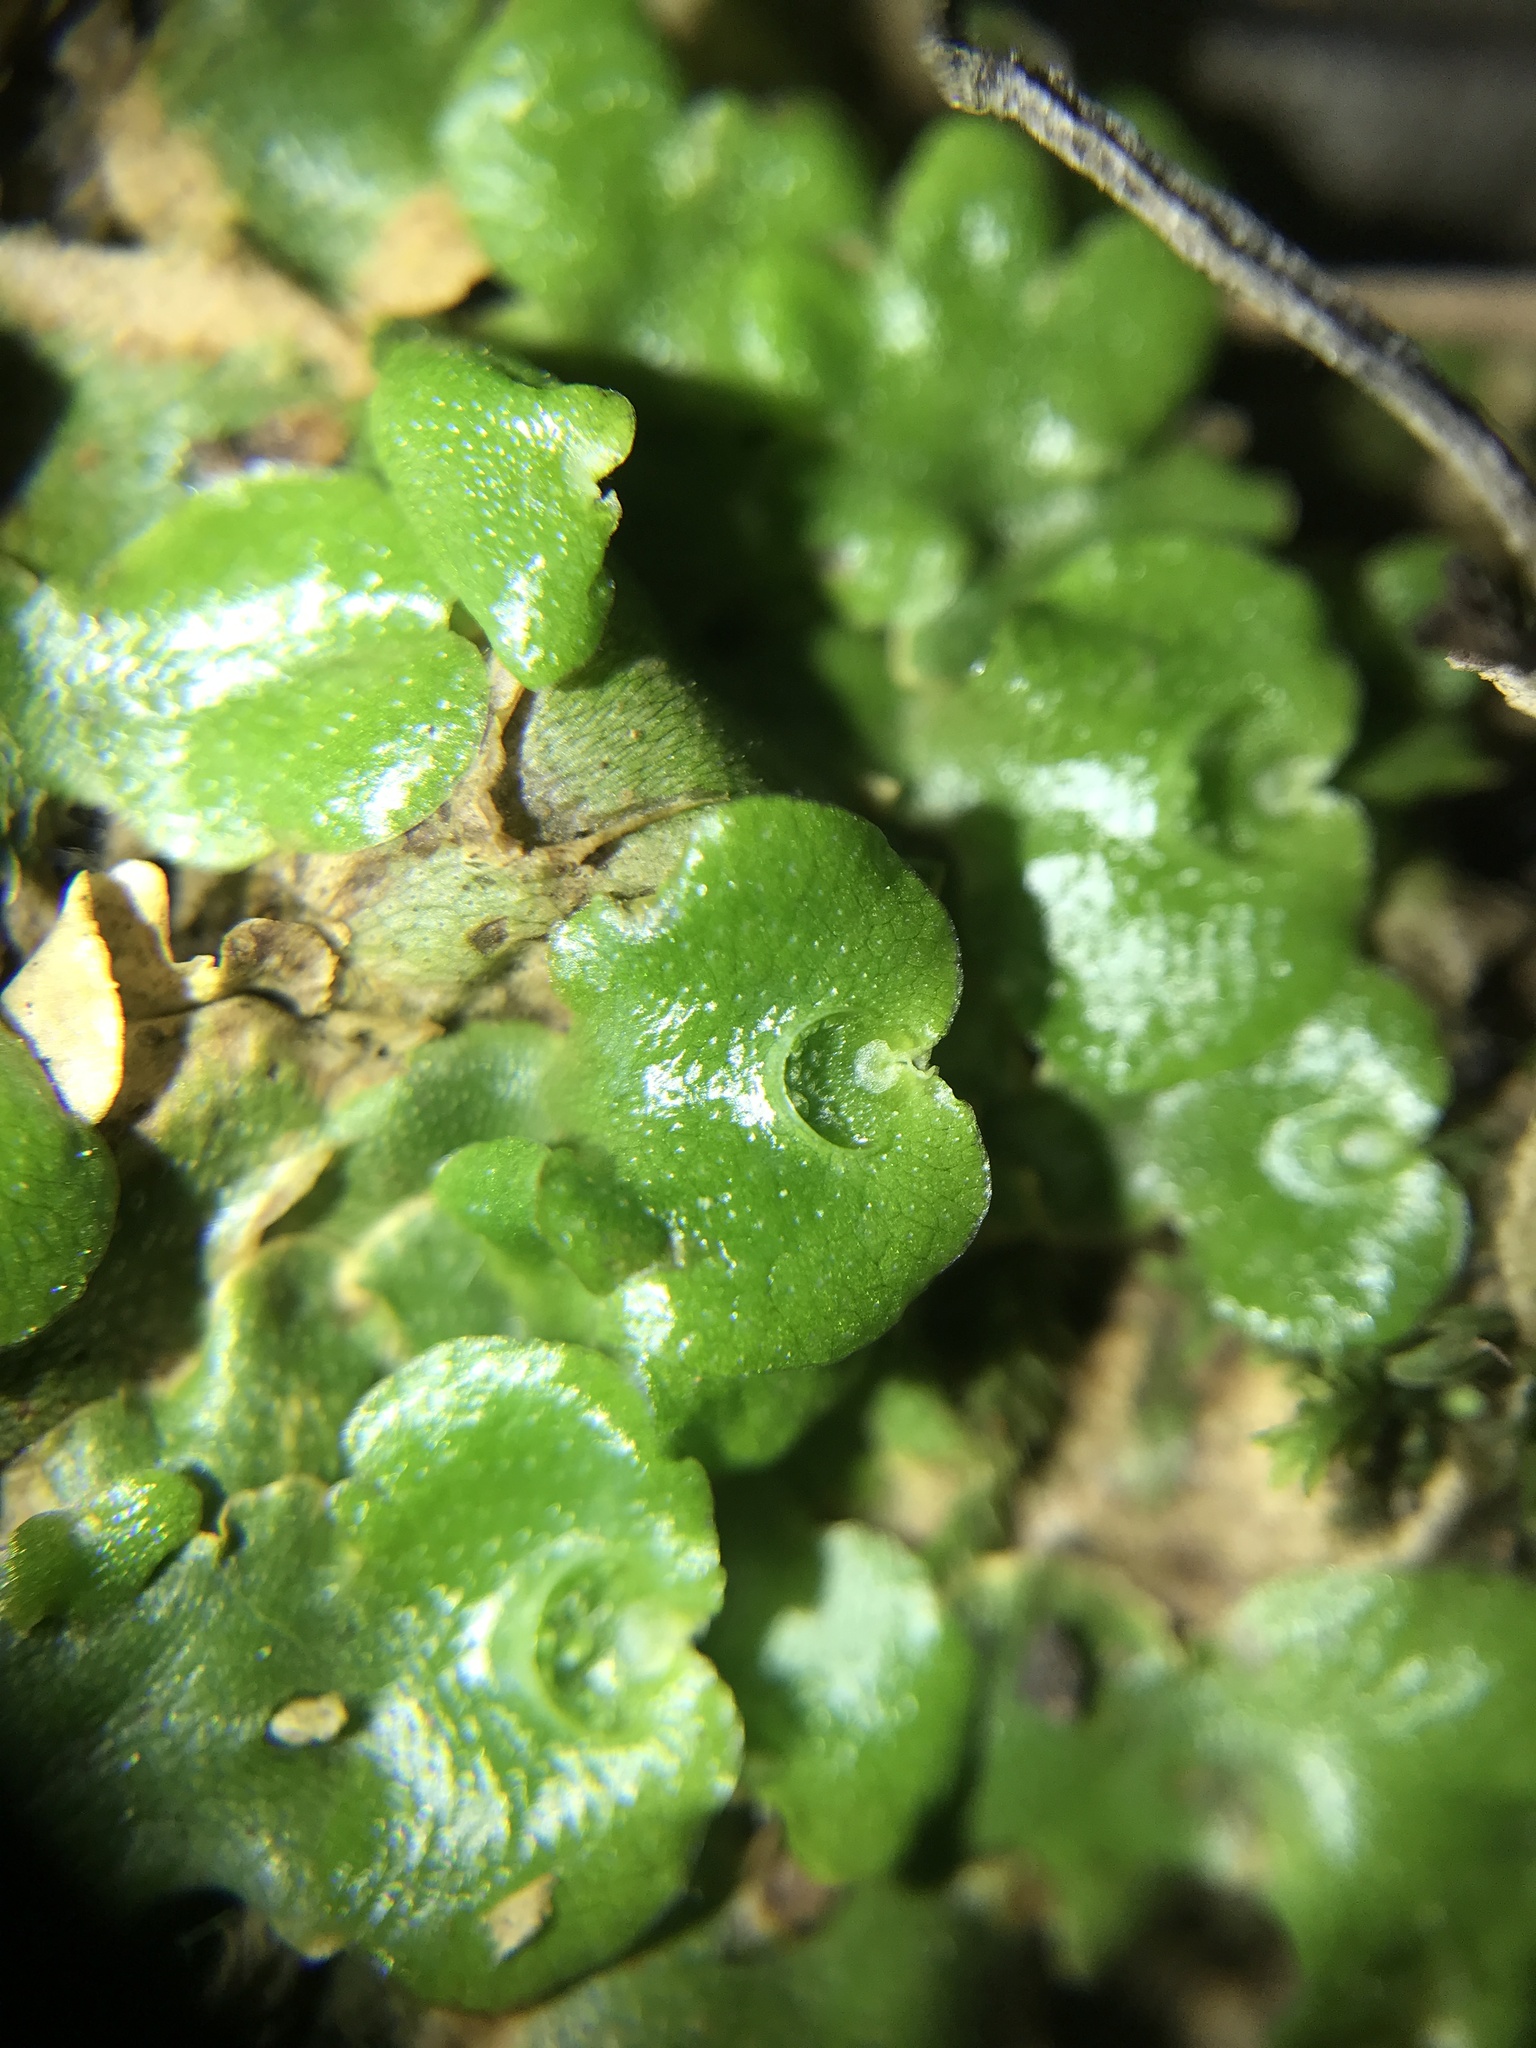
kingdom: Plantae
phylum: Marchantiophyta
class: Marchantiopsida
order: Lunulariales
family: Lunulariaceae
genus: Lunularia
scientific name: Lunularia cruciata
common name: Crescent-cup liverwort
